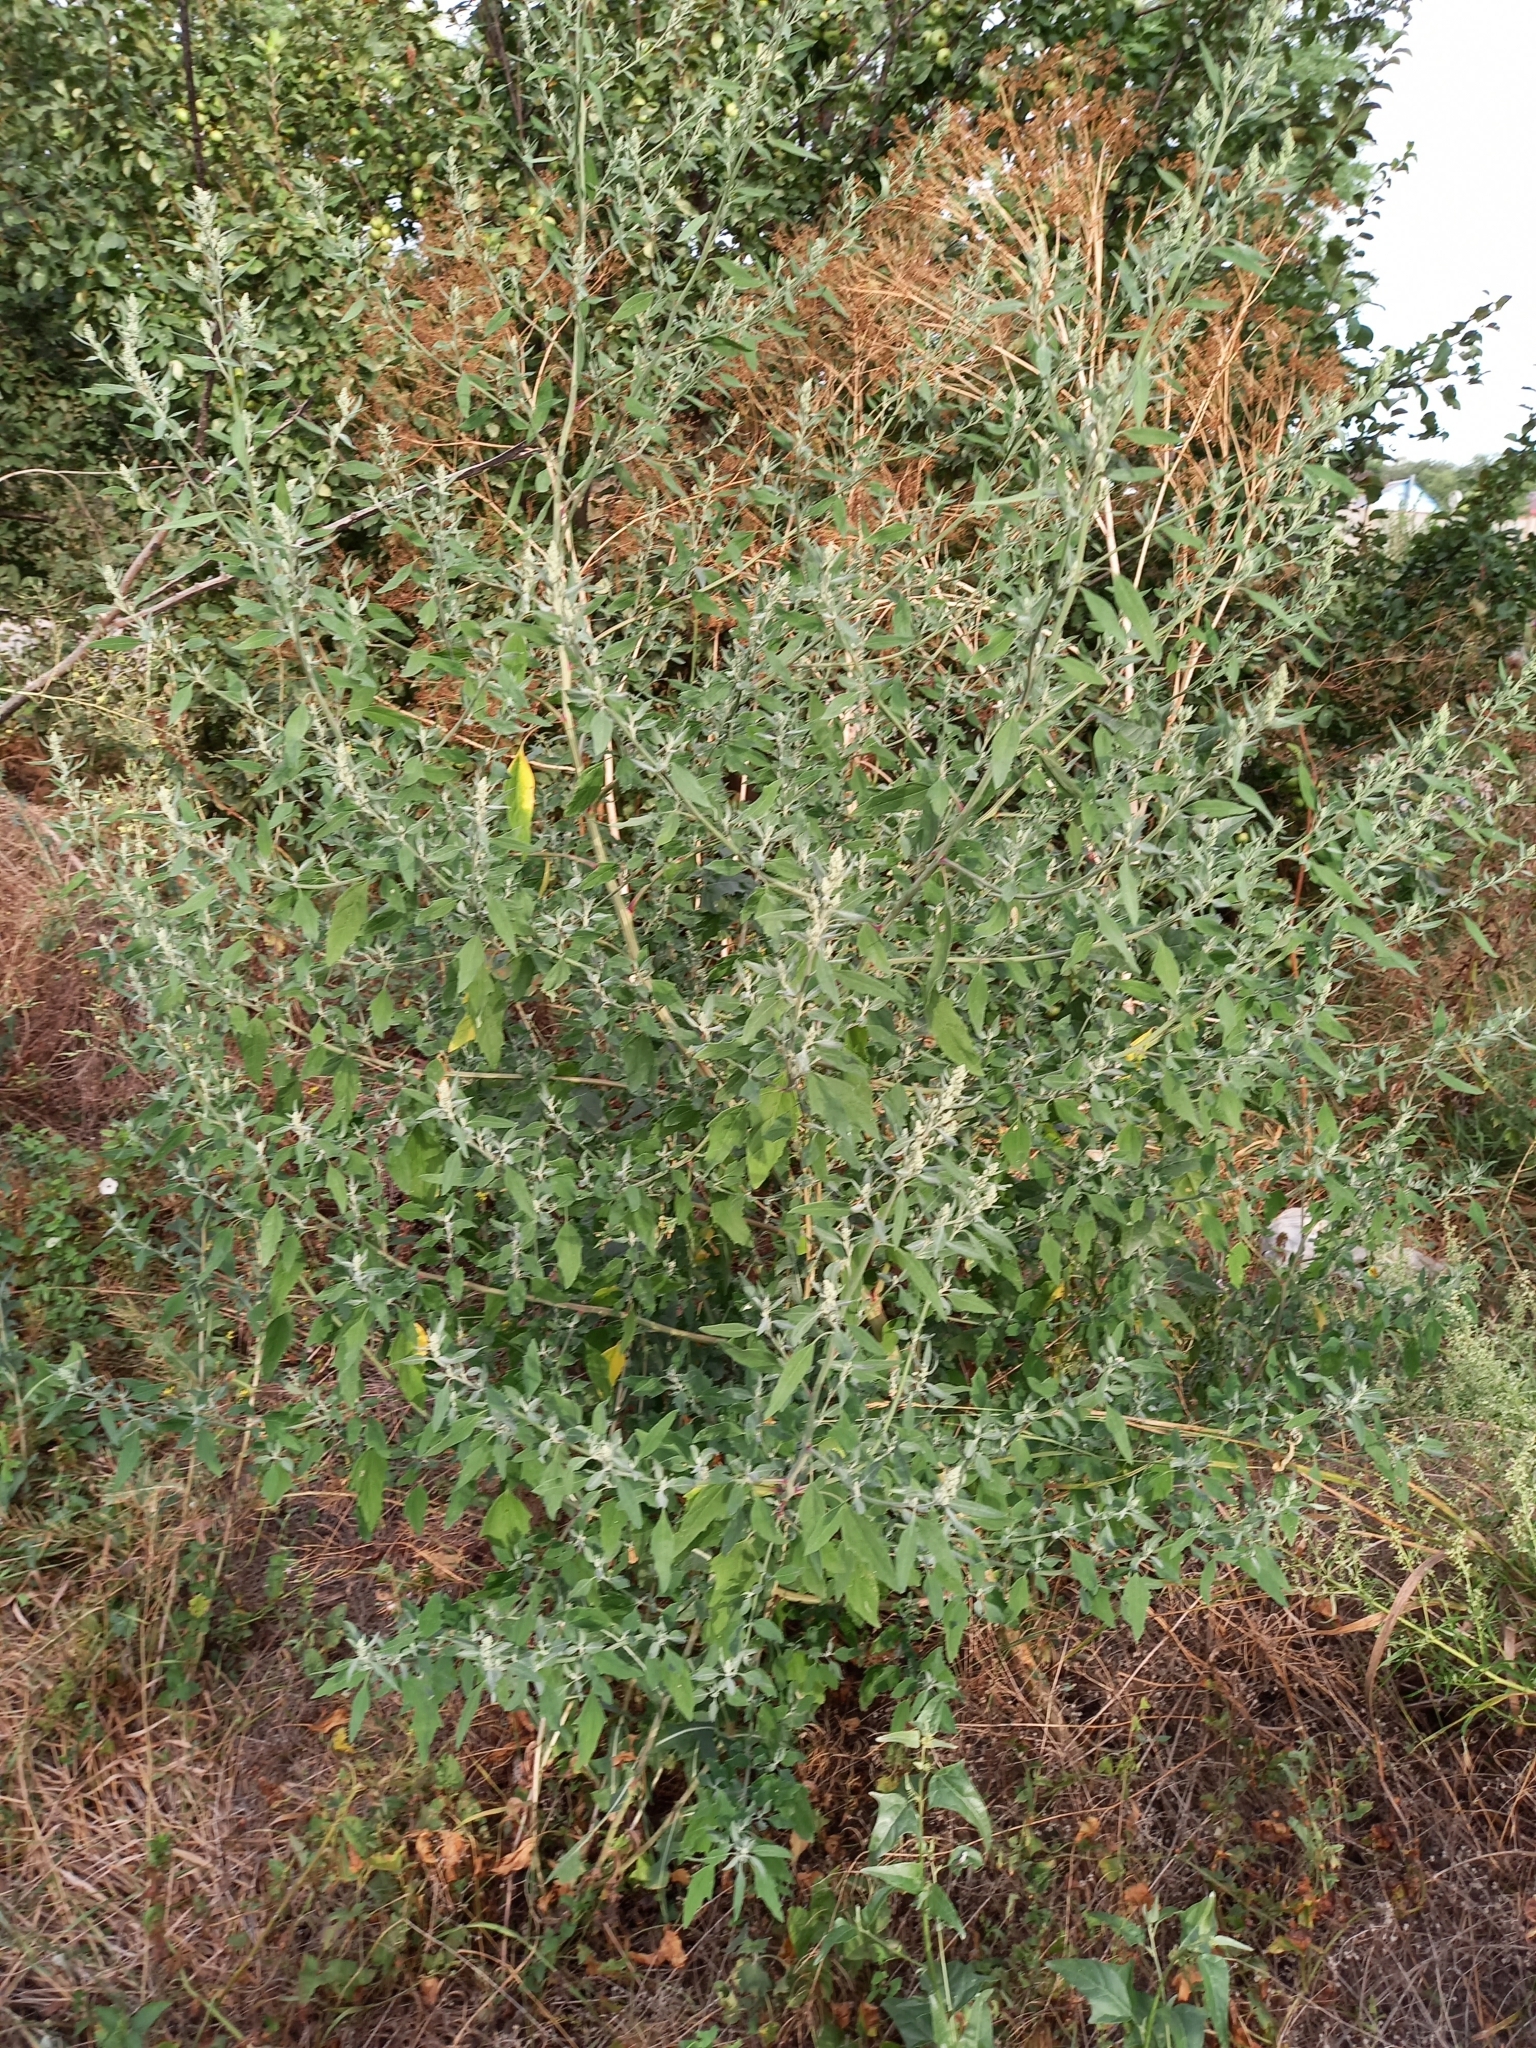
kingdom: Plantae
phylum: Tracheophyta
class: Magnoliopsida
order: Caryophyllales
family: Amaranthaceae
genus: Chenopodium
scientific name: Chenopodium album
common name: Fat-hen
